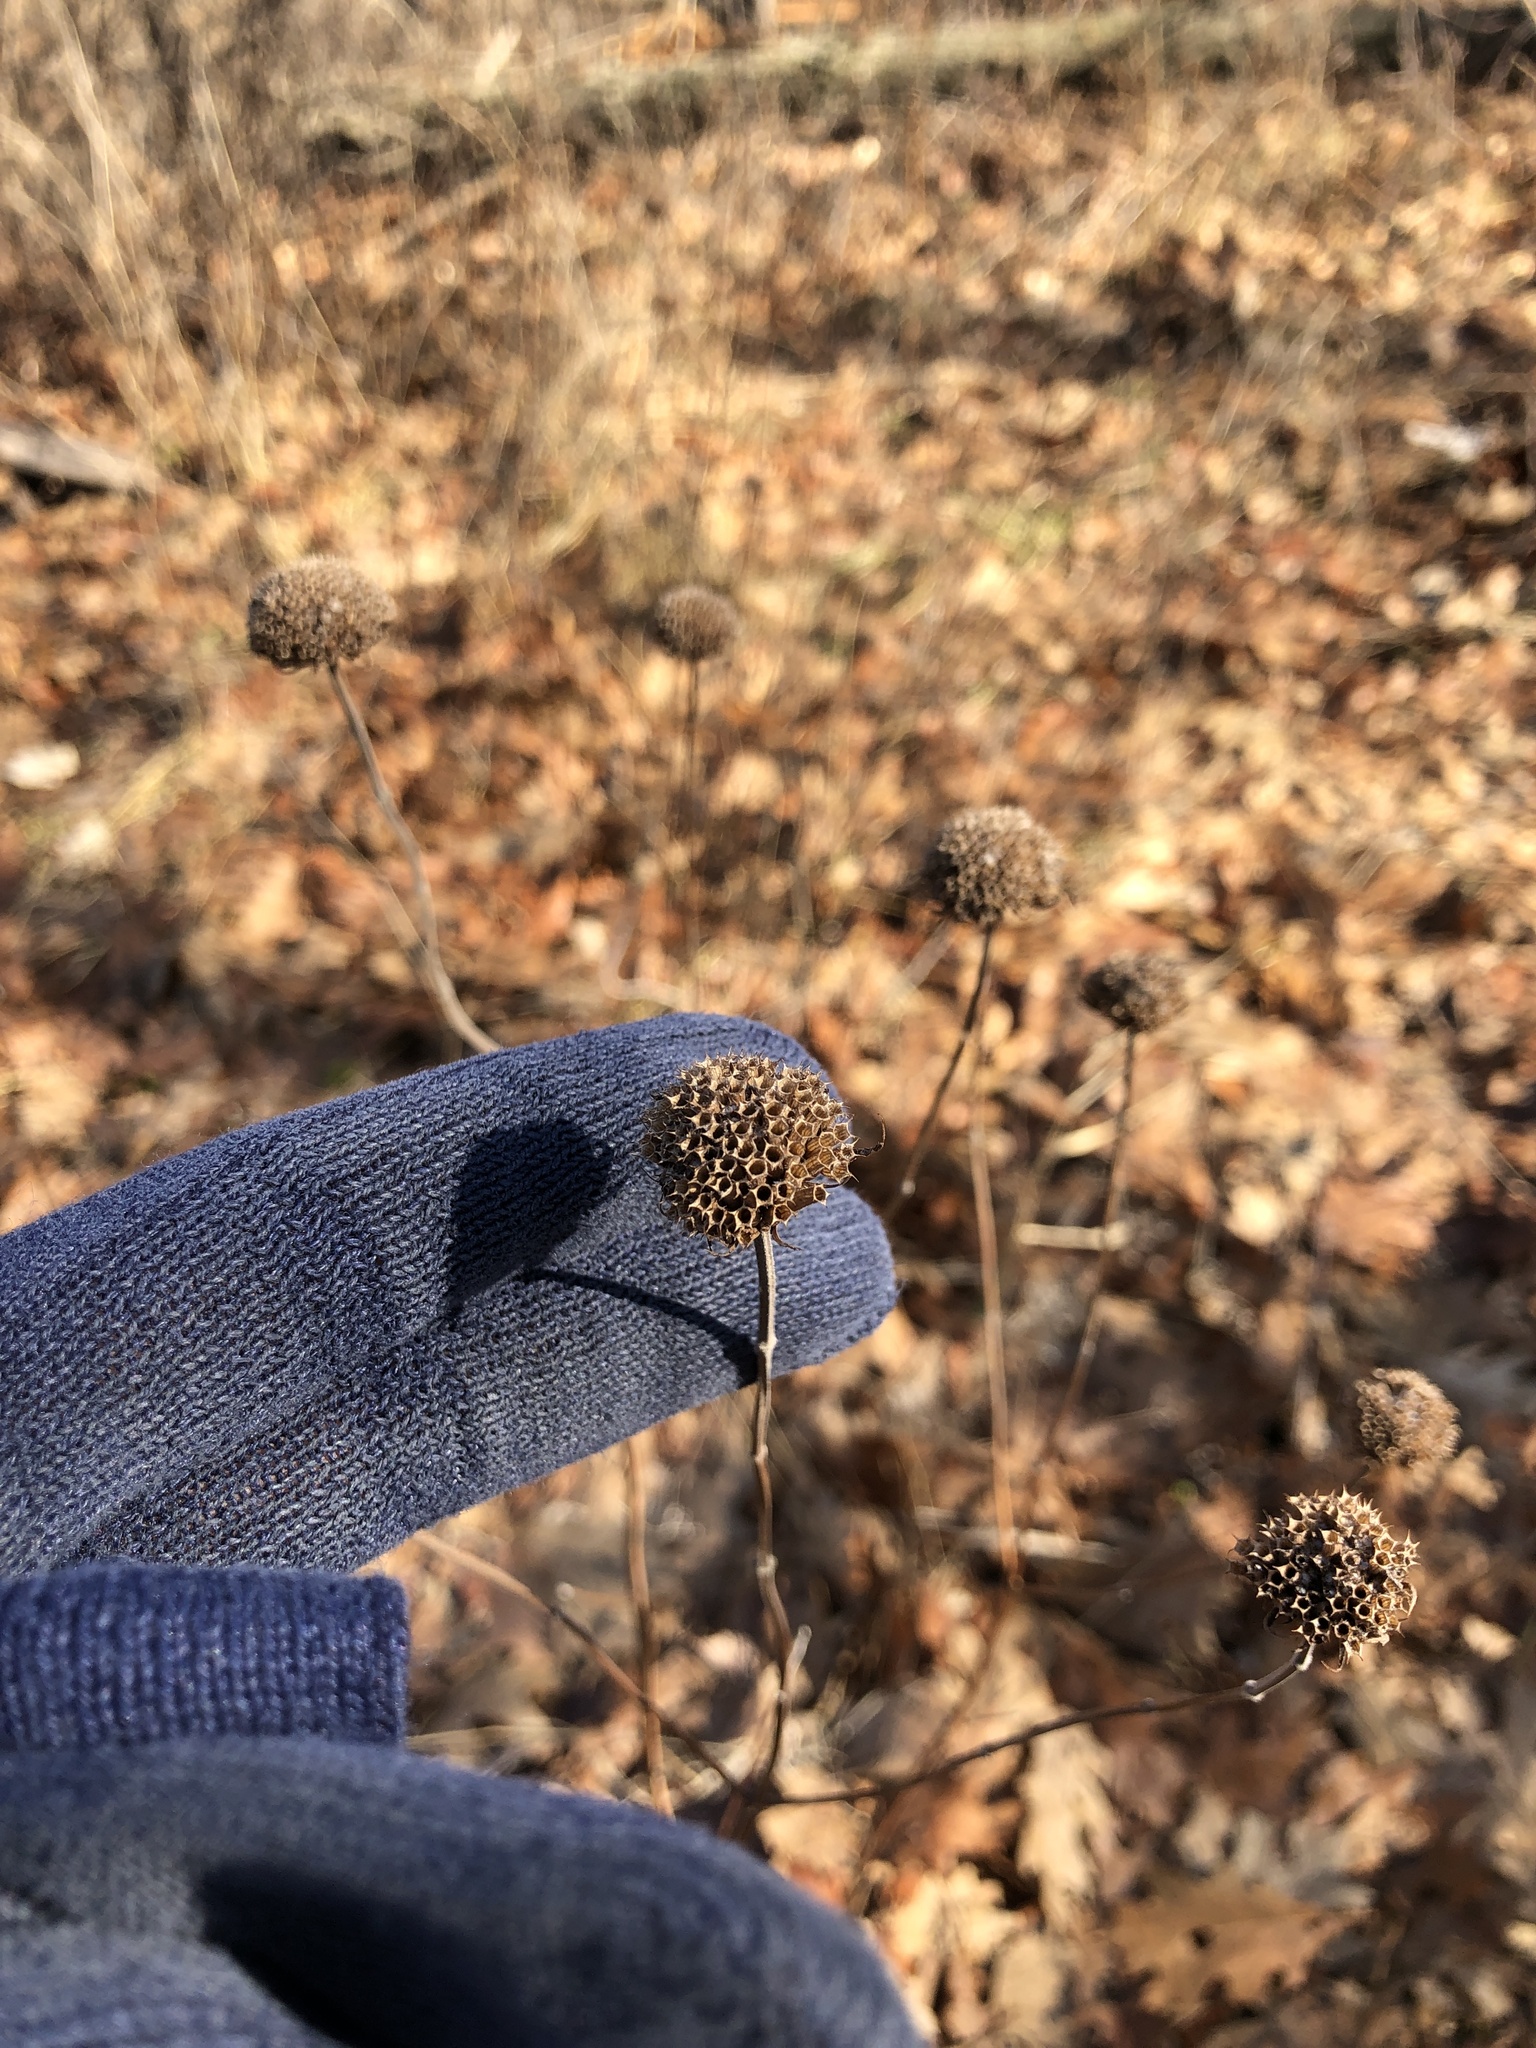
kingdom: Plantae
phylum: Tracheophyta
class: Magnoliopsida
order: Lamiales
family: Lamiaceae
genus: Monarda
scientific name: Monarda fistulosa
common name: Purple beebalm
